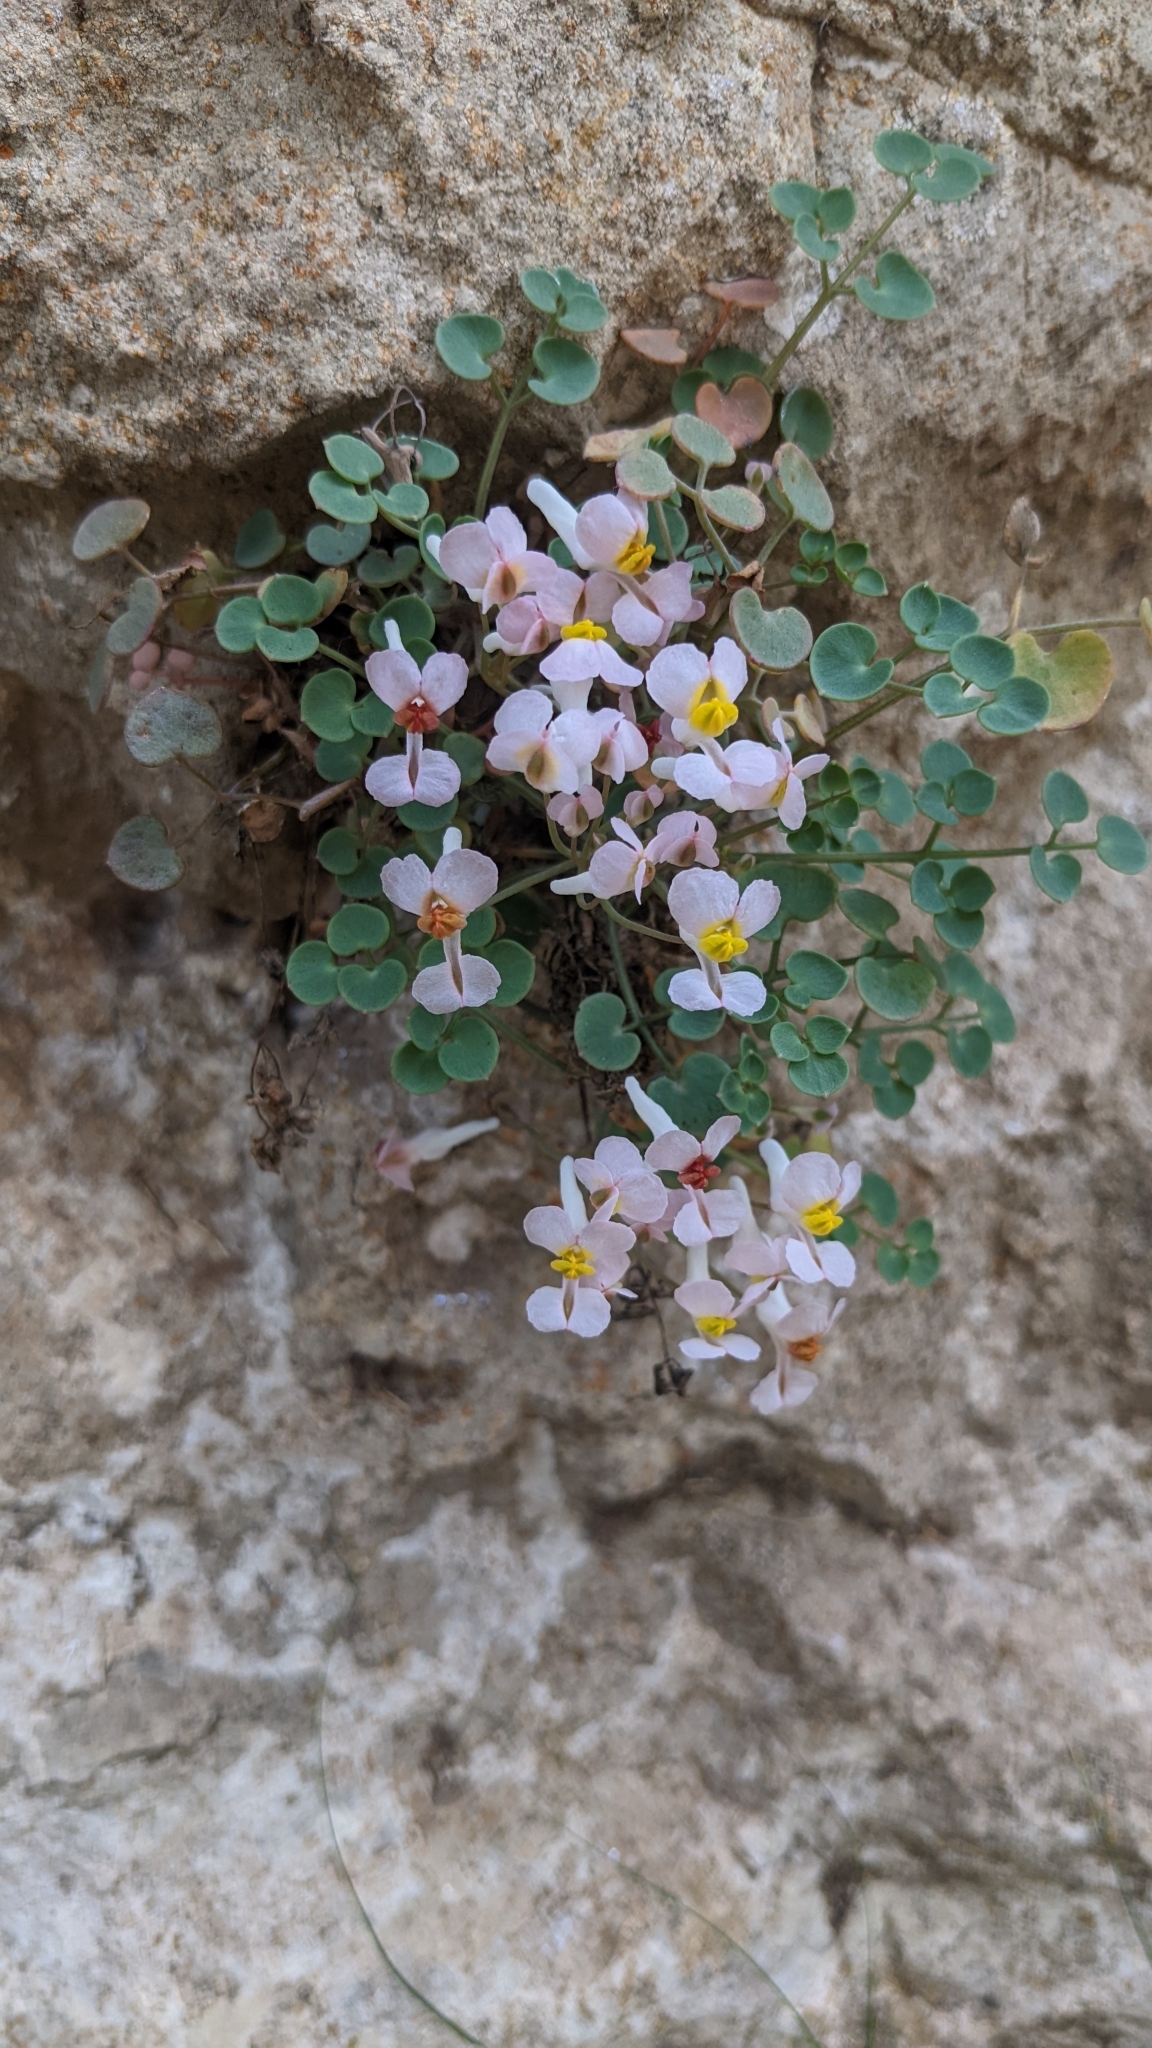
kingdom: Plantae
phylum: Tracheophyta
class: Magnoliopsida
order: Ranunculales
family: Papaveraceae
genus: Sarcocapnos
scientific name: Sarcocapnos enneaphylla
